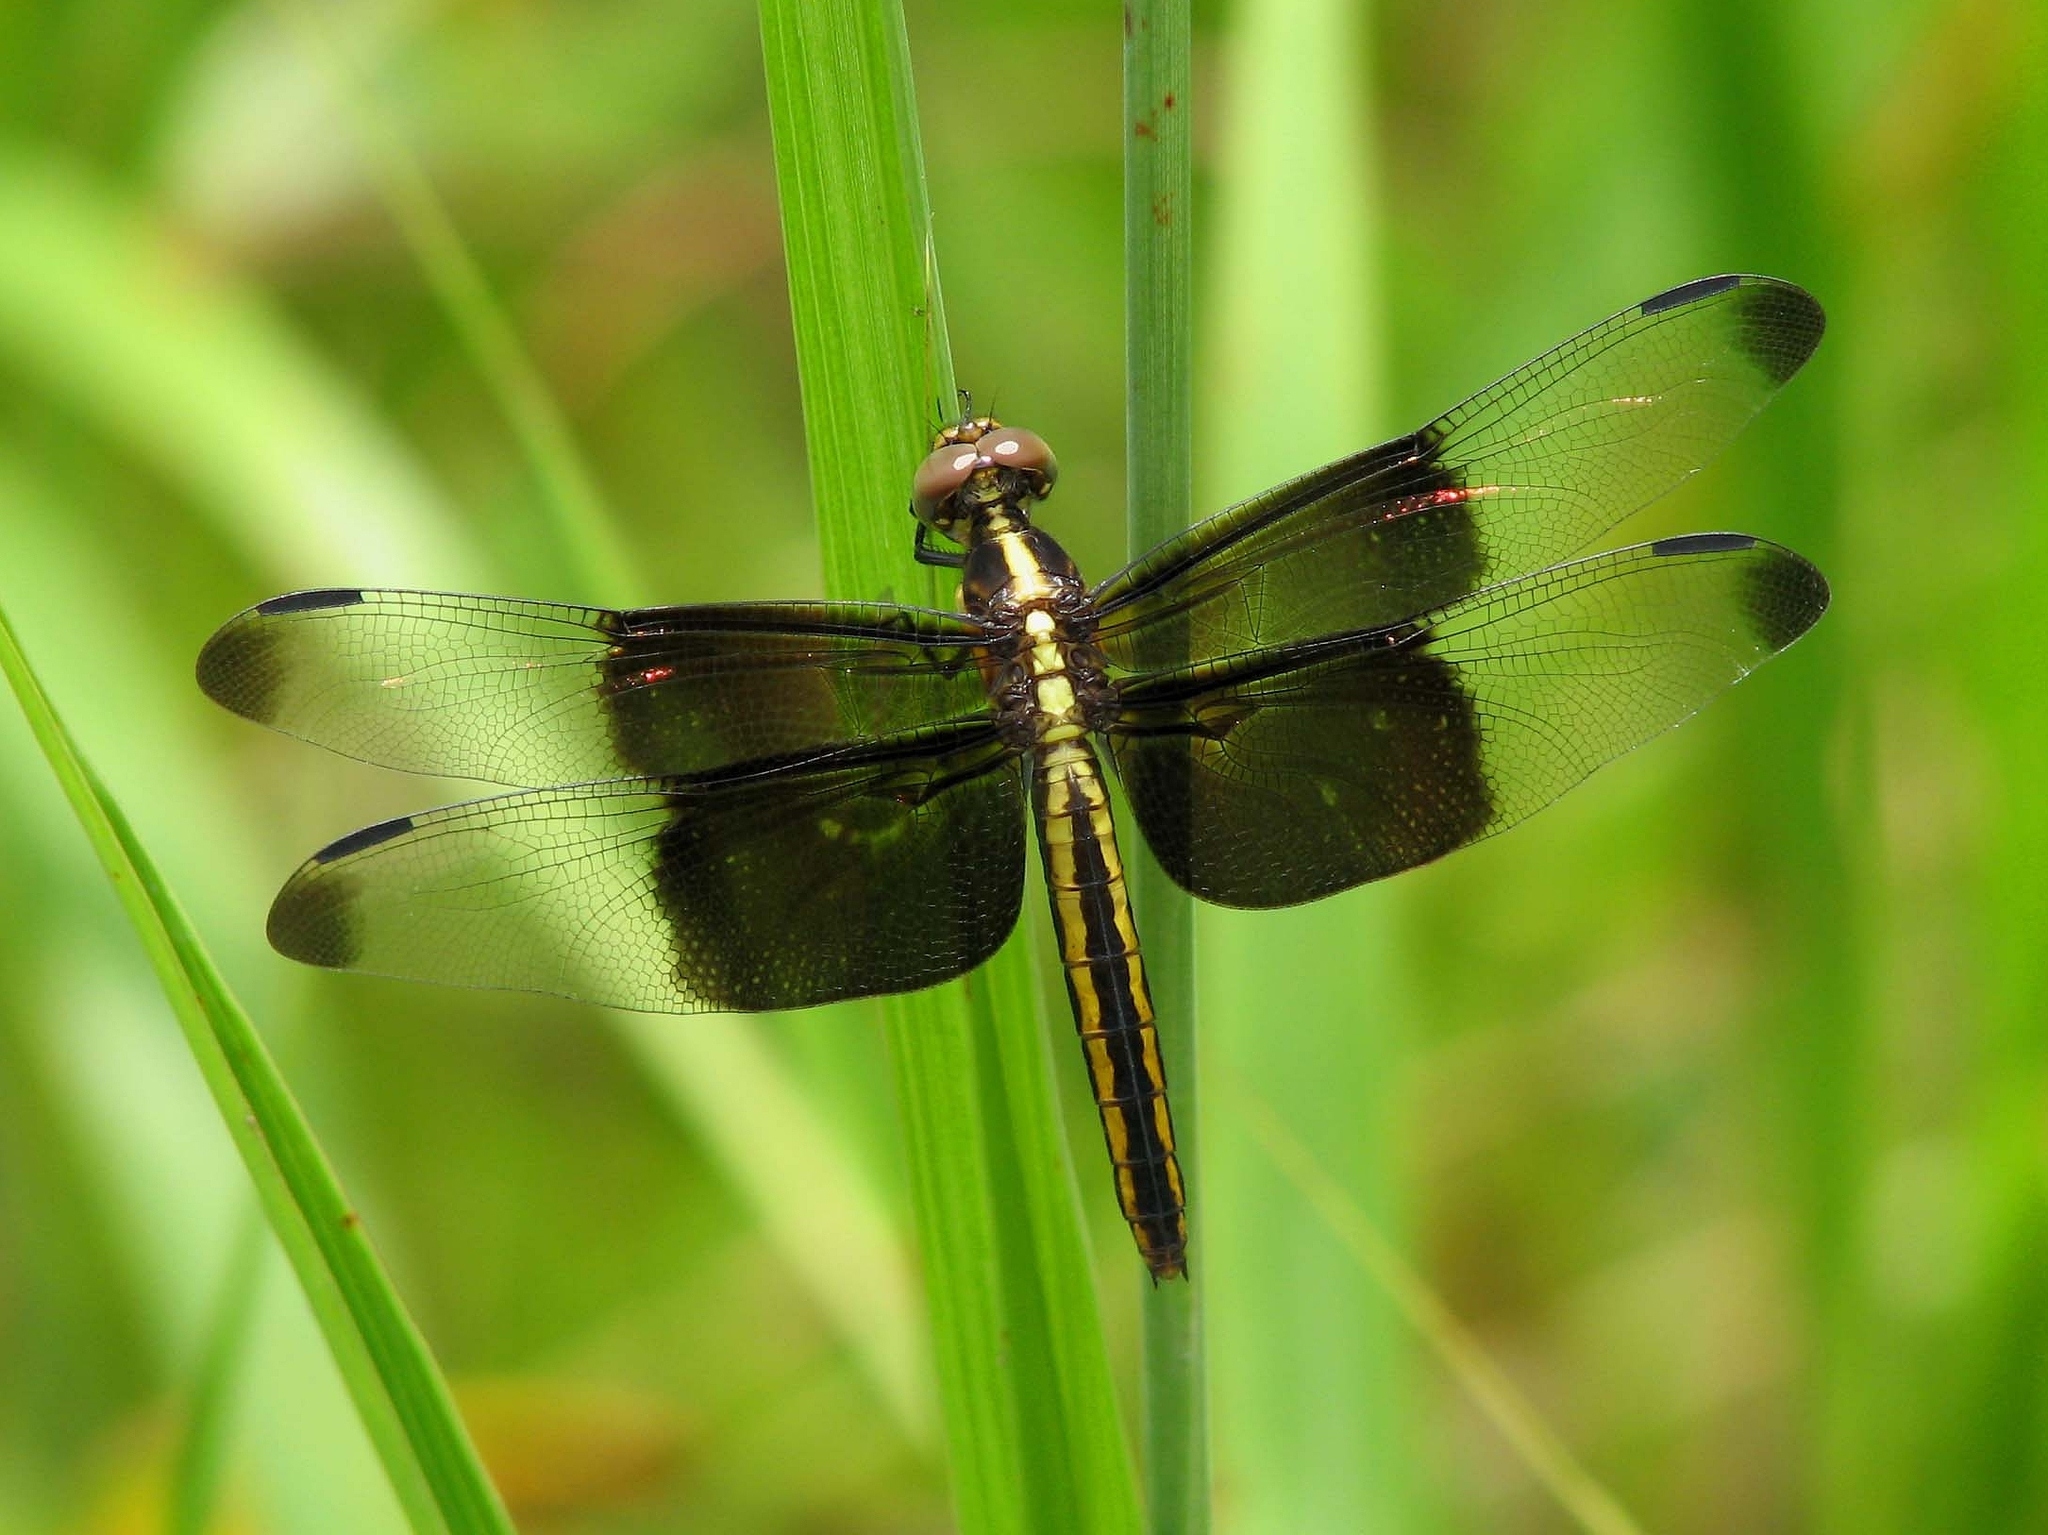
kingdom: Animalia
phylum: Arthropoda
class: Insecta
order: Odonata
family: Libellulidae
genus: Libellula
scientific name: Libellula luctuosa
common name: Widow skimmer
